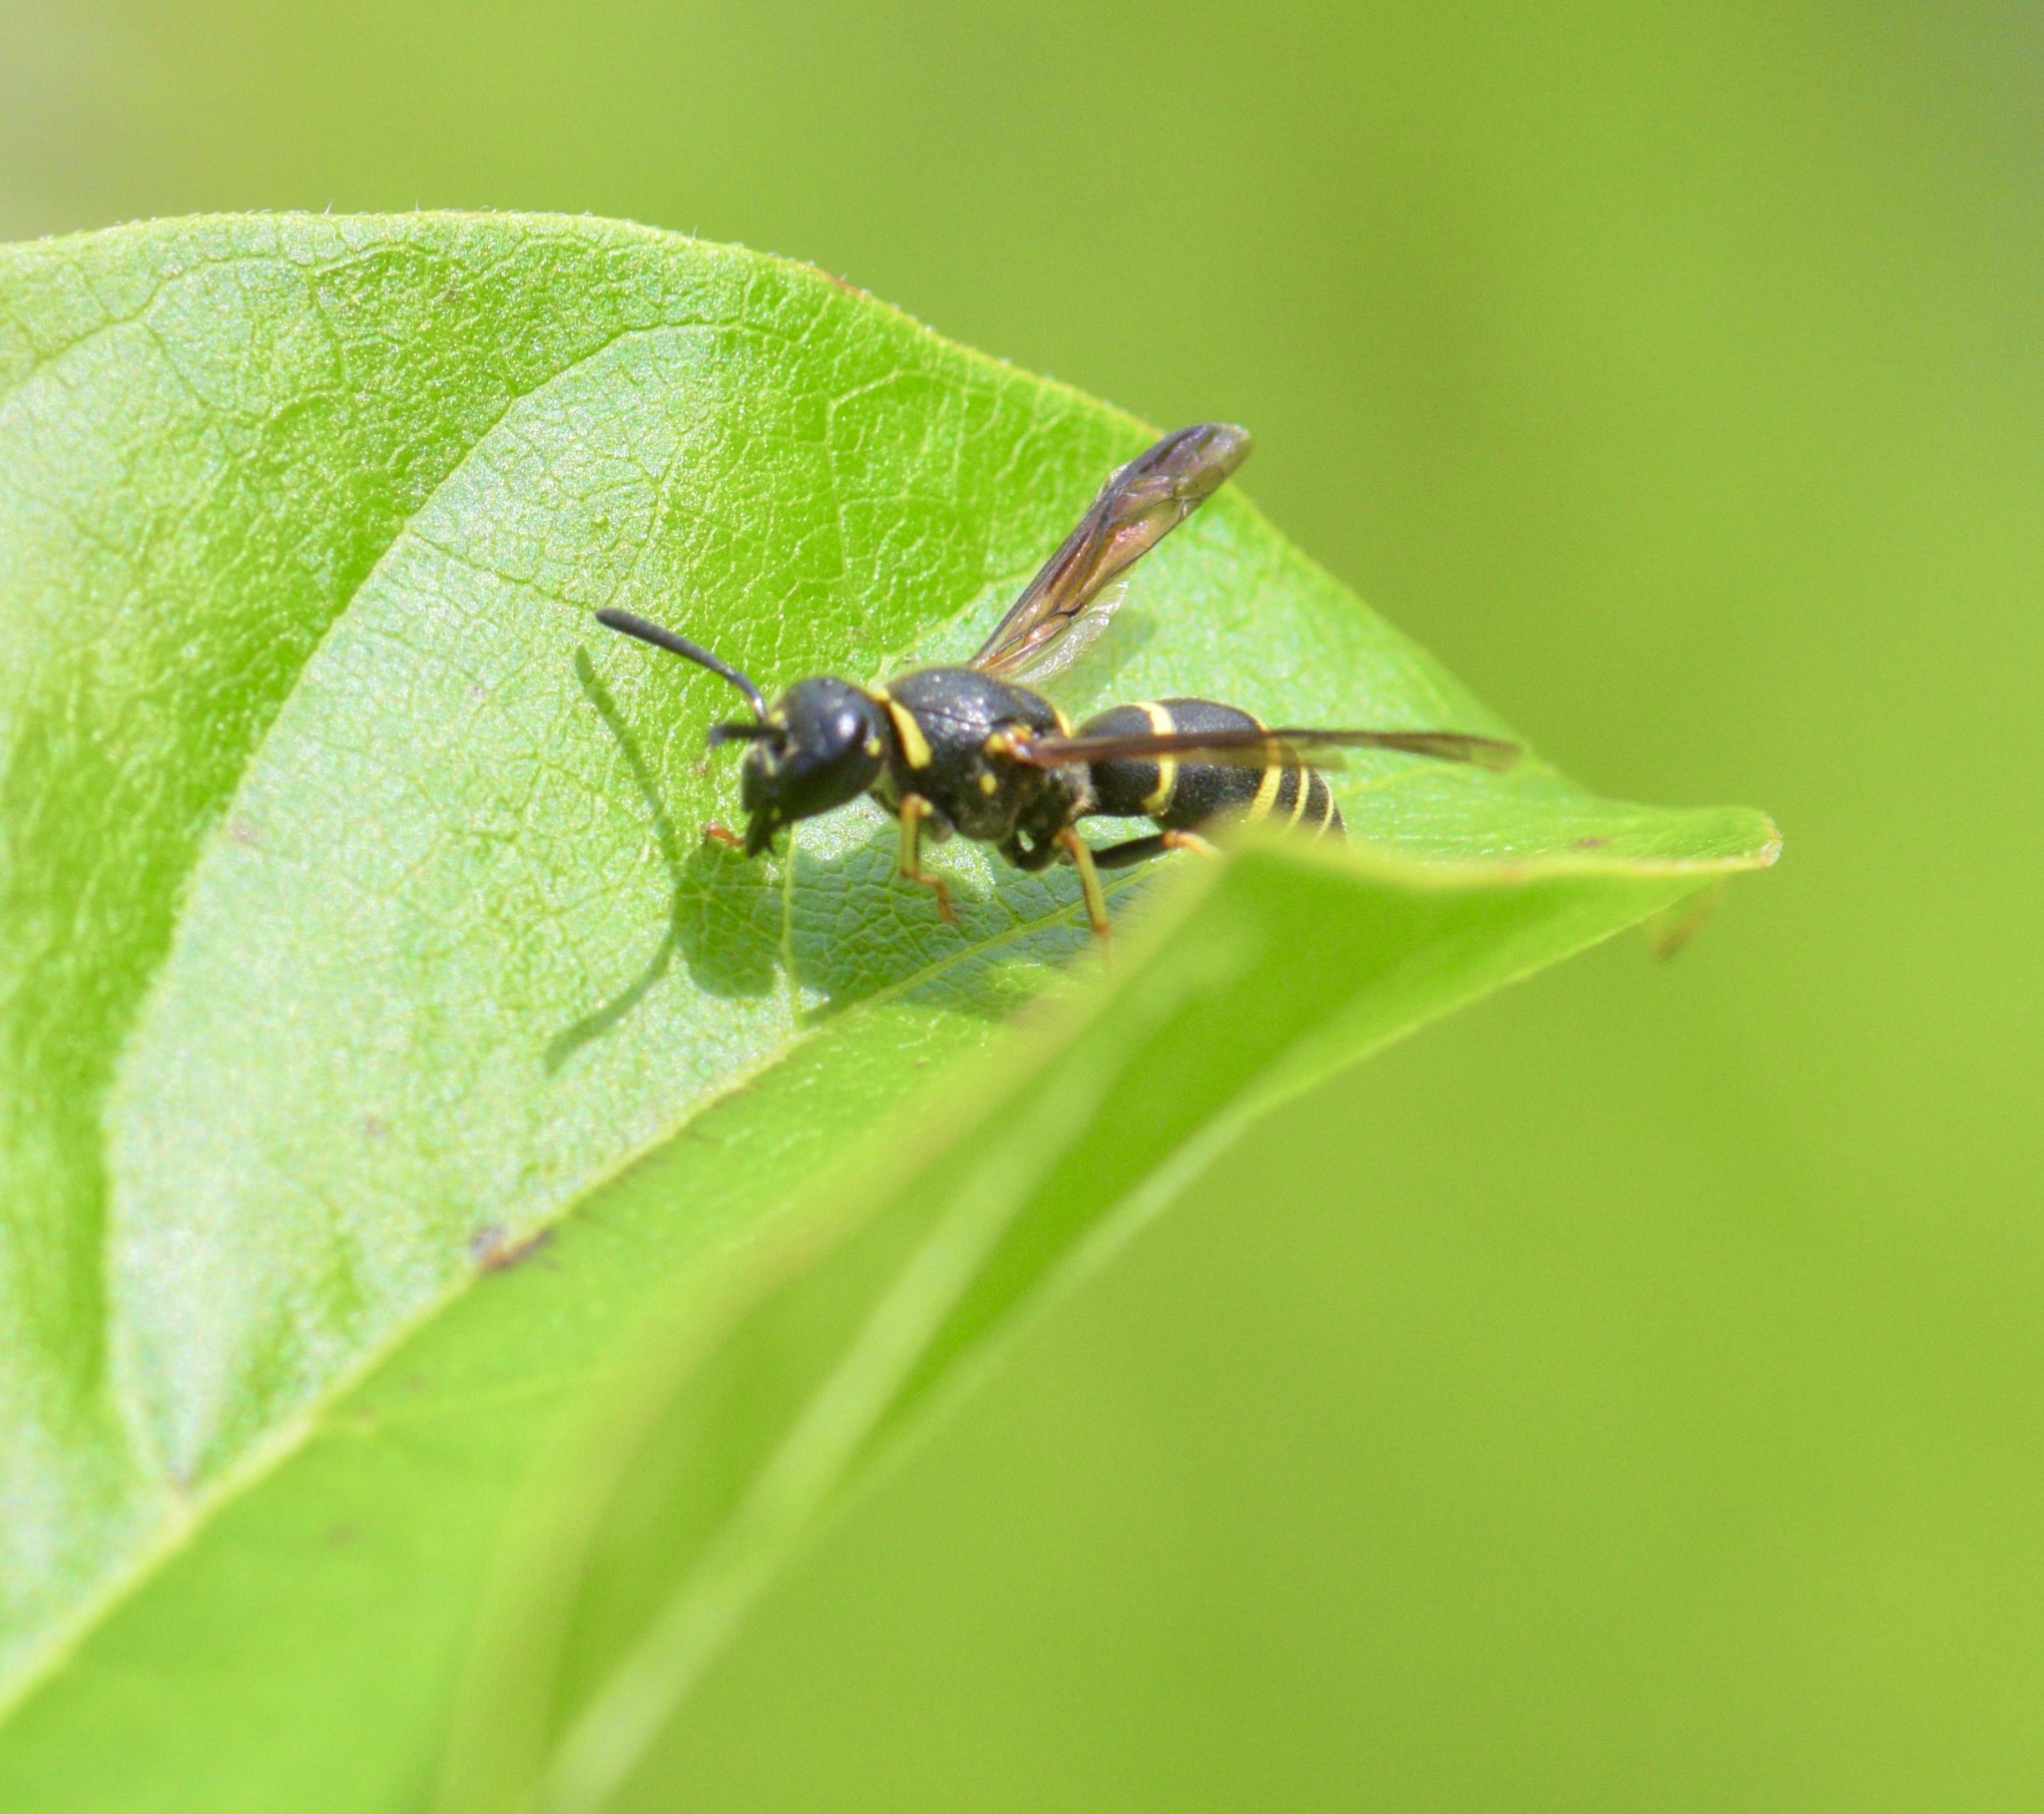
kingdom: Animalia
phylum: Arthropoda
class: Insecta
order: Hymenoptera
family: Eumenidae
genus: Euodynerus
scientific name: Euodynerus foraminatus
